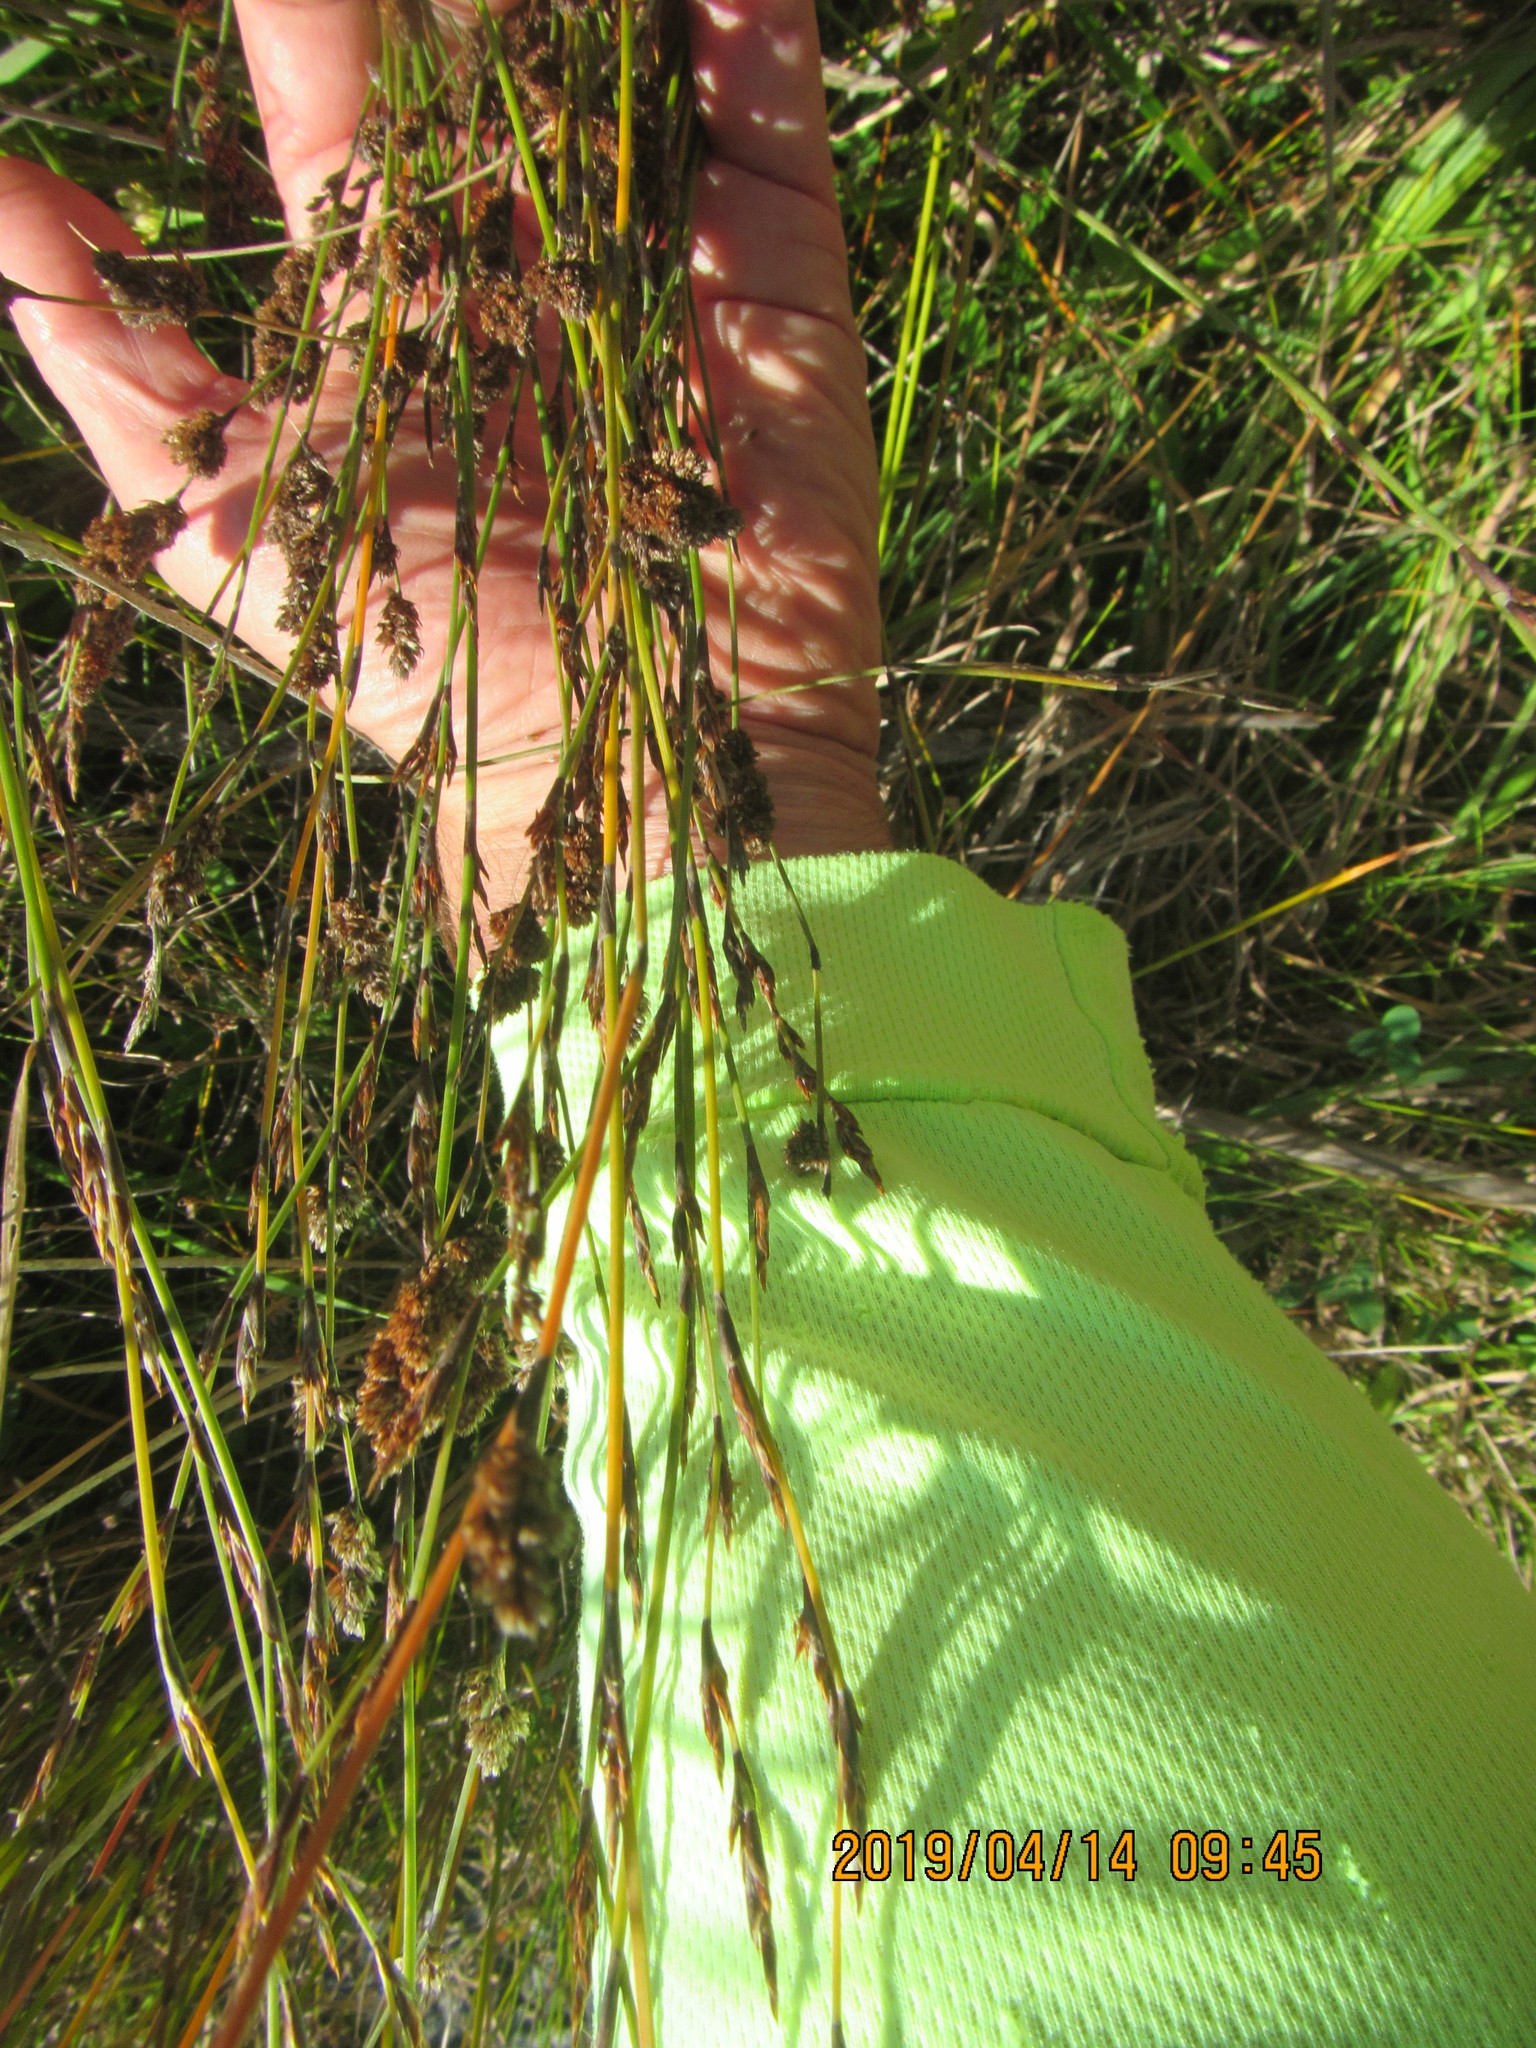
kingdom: Plantae
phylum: Tracheophyta
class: Liliopsida
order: Poales
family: Restionaceae
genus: Apodasmia
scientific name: Apodasmia similis
